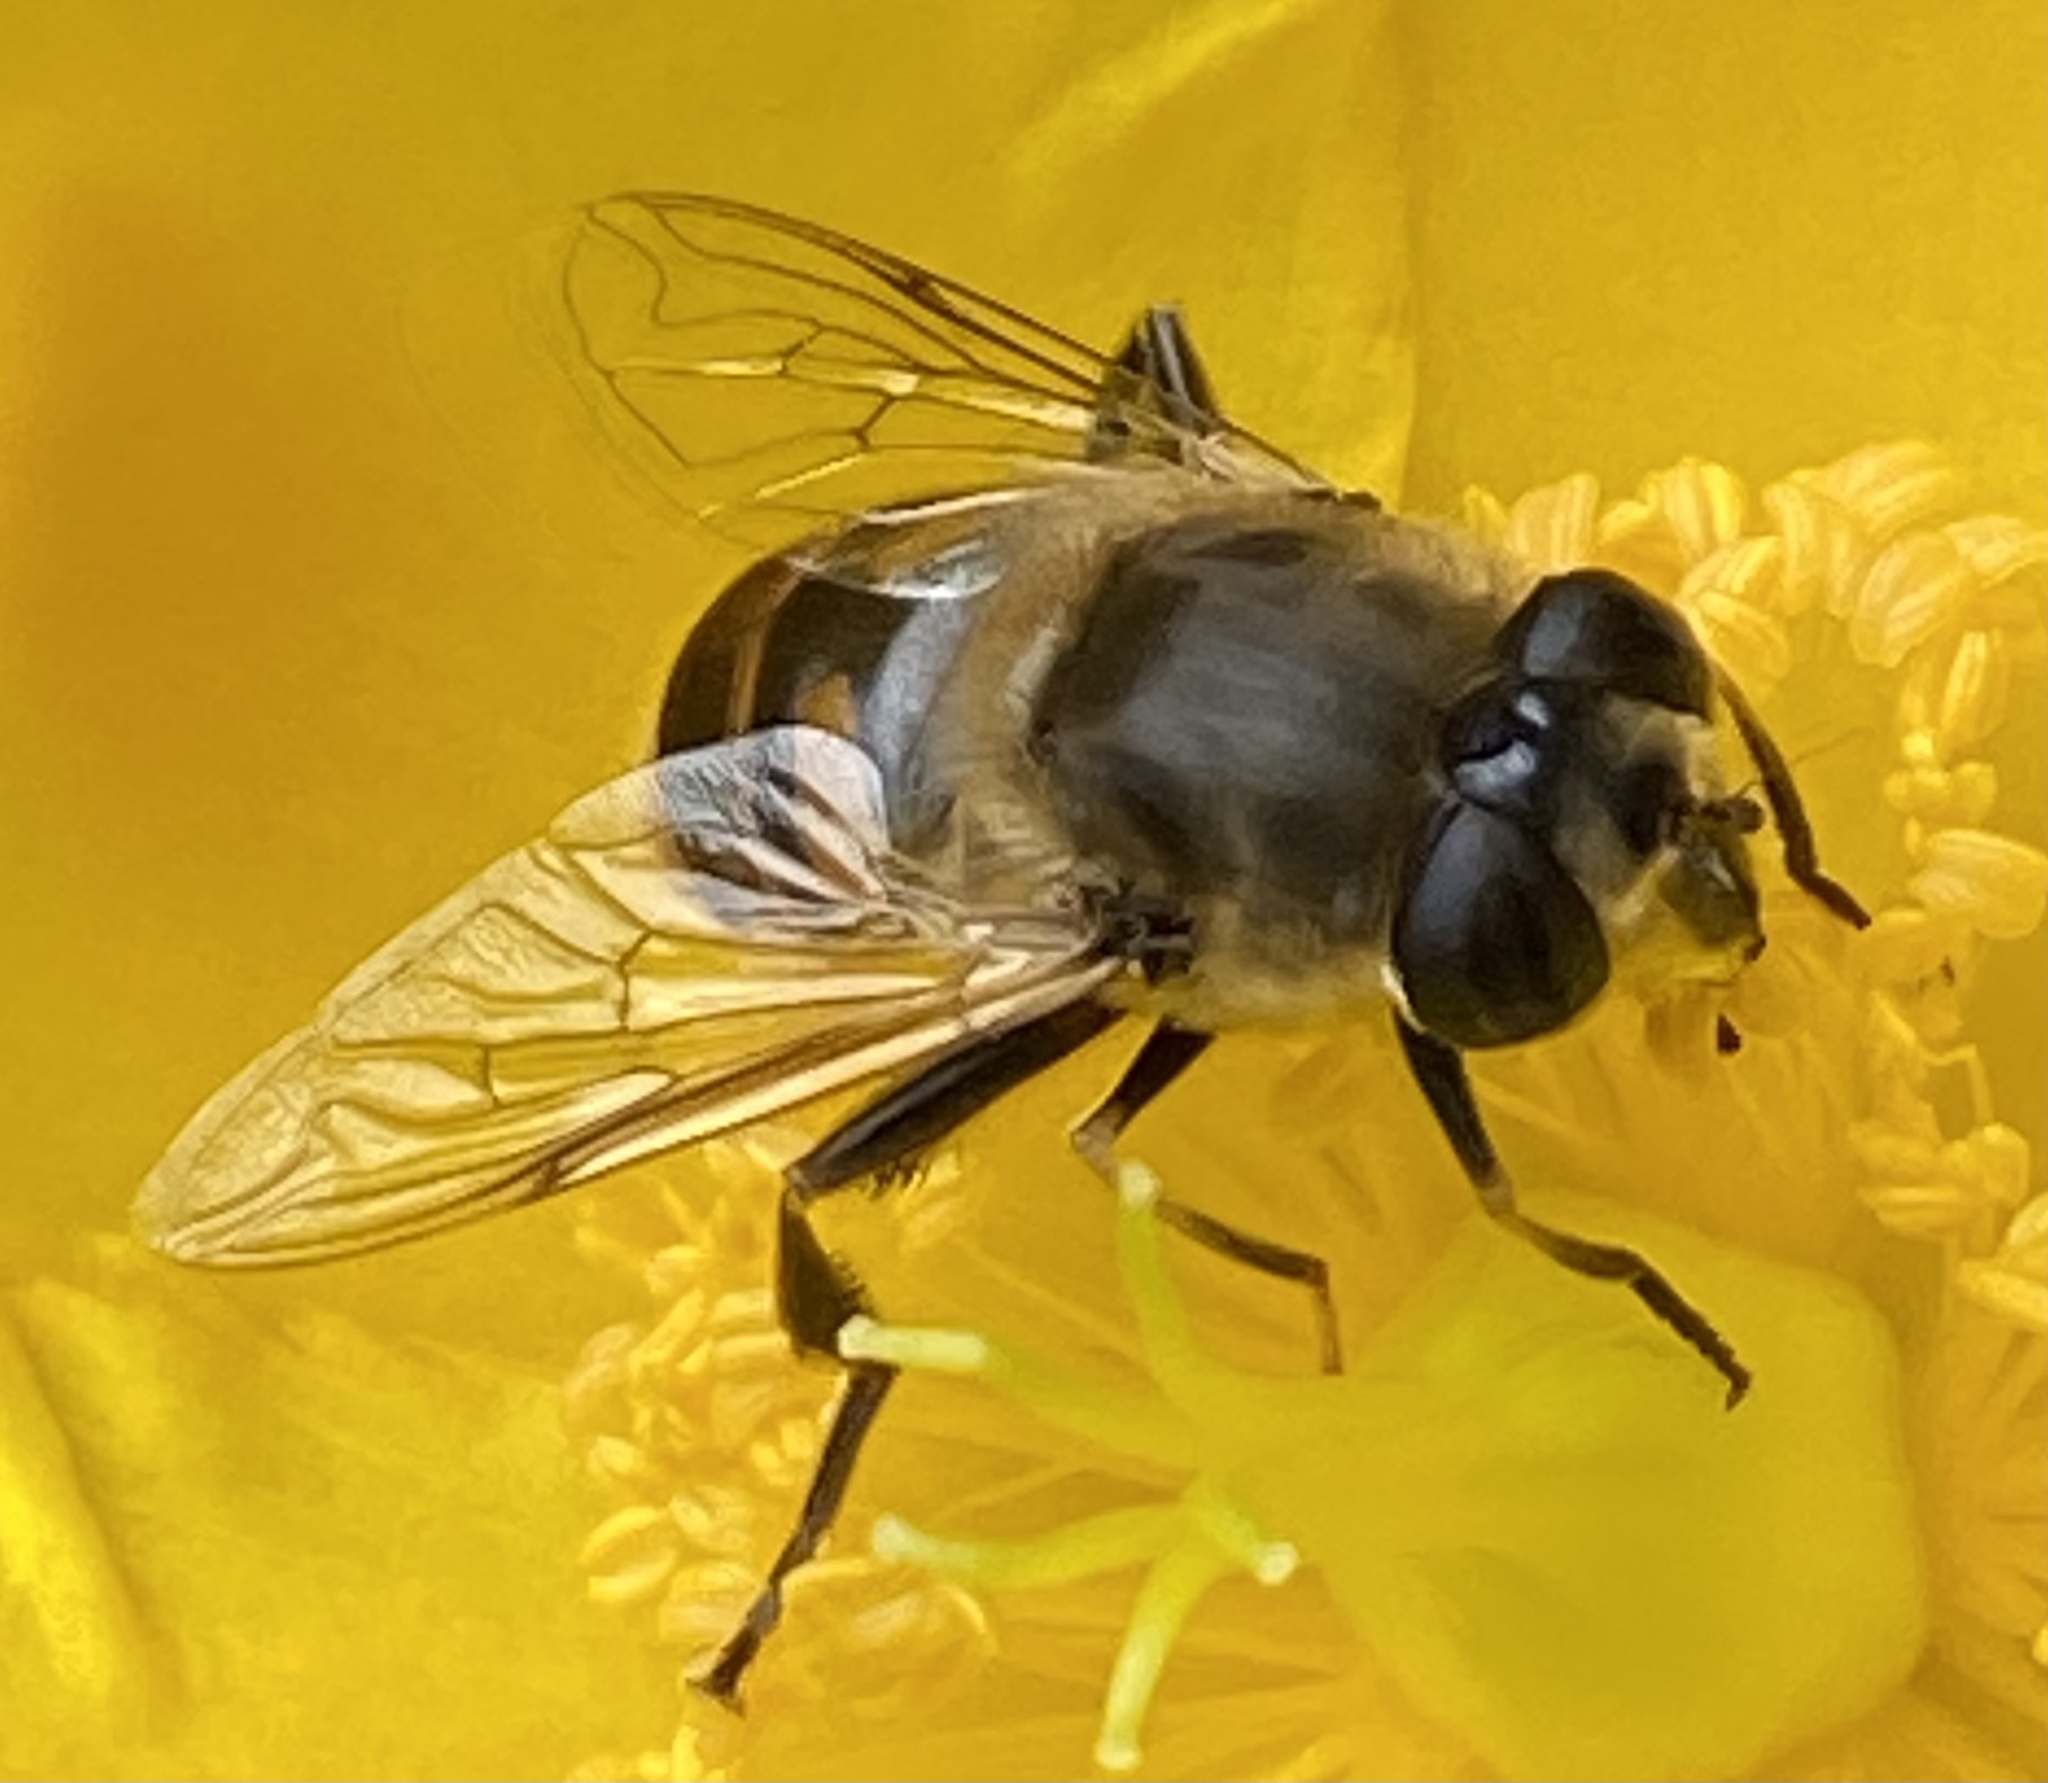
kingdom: Animalia
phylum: Arthropoda
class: Insecta
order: Diptera
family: Syrphidae
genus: Eristalis
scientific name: Eristalis tenax
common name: Drone fly
